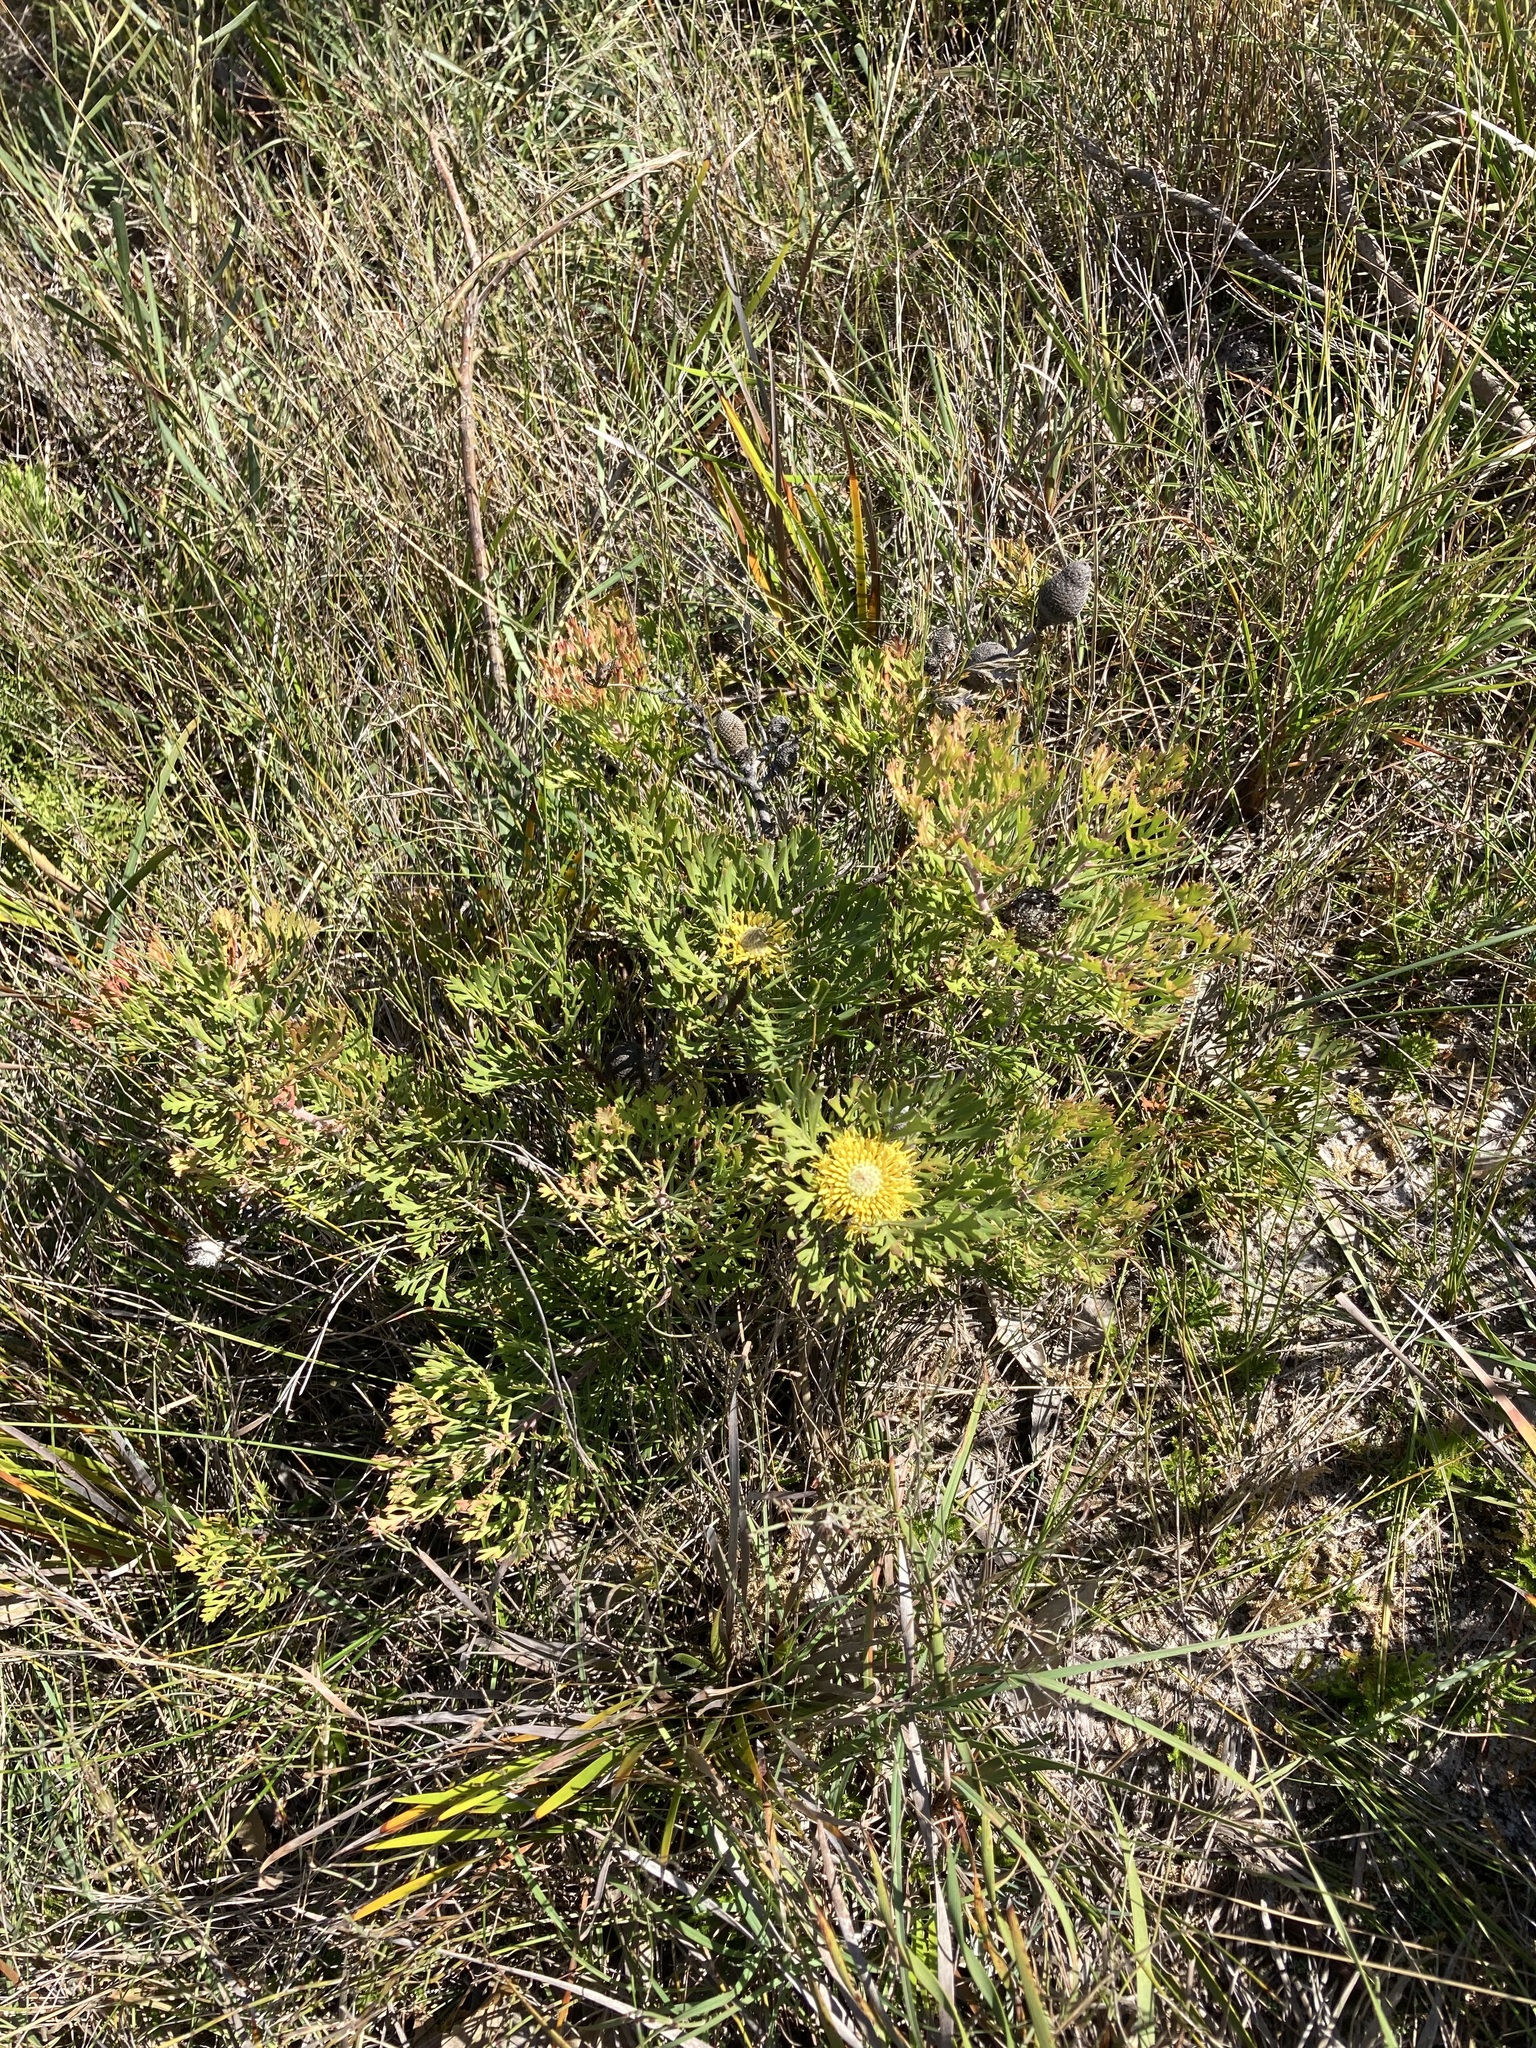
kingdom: Plantae
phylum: Tracheophyta
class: Magnoliopsida
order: Proteales
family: Proteaceae
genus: Isopogon
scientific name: Isopogon anemonifolius
